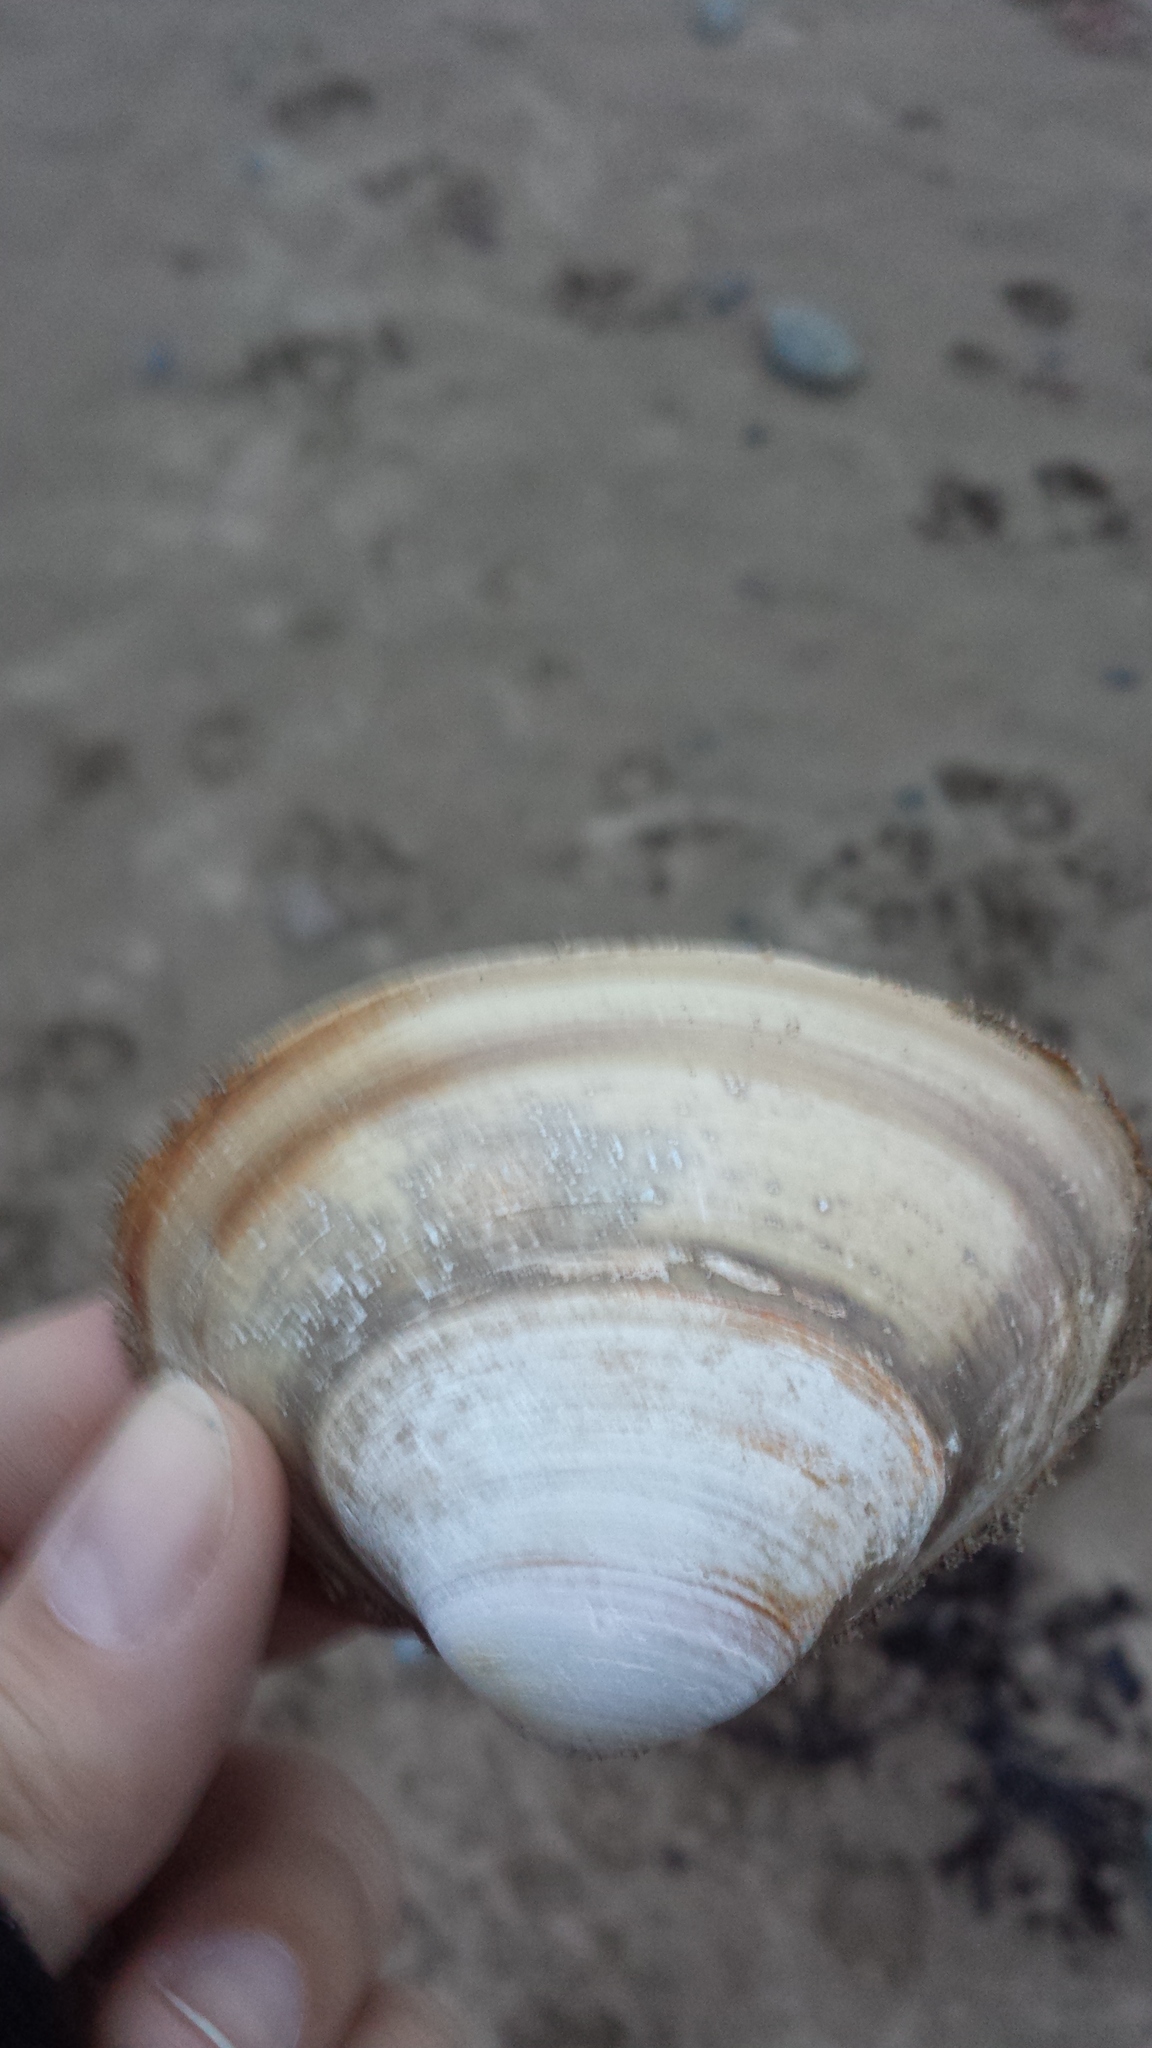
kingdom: Animalia
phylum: Mollusca
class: Bivalvia
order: Venerida
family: Mactridae
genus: Spisula
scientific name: Spisula solidissima
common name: Atlantic surf clam
